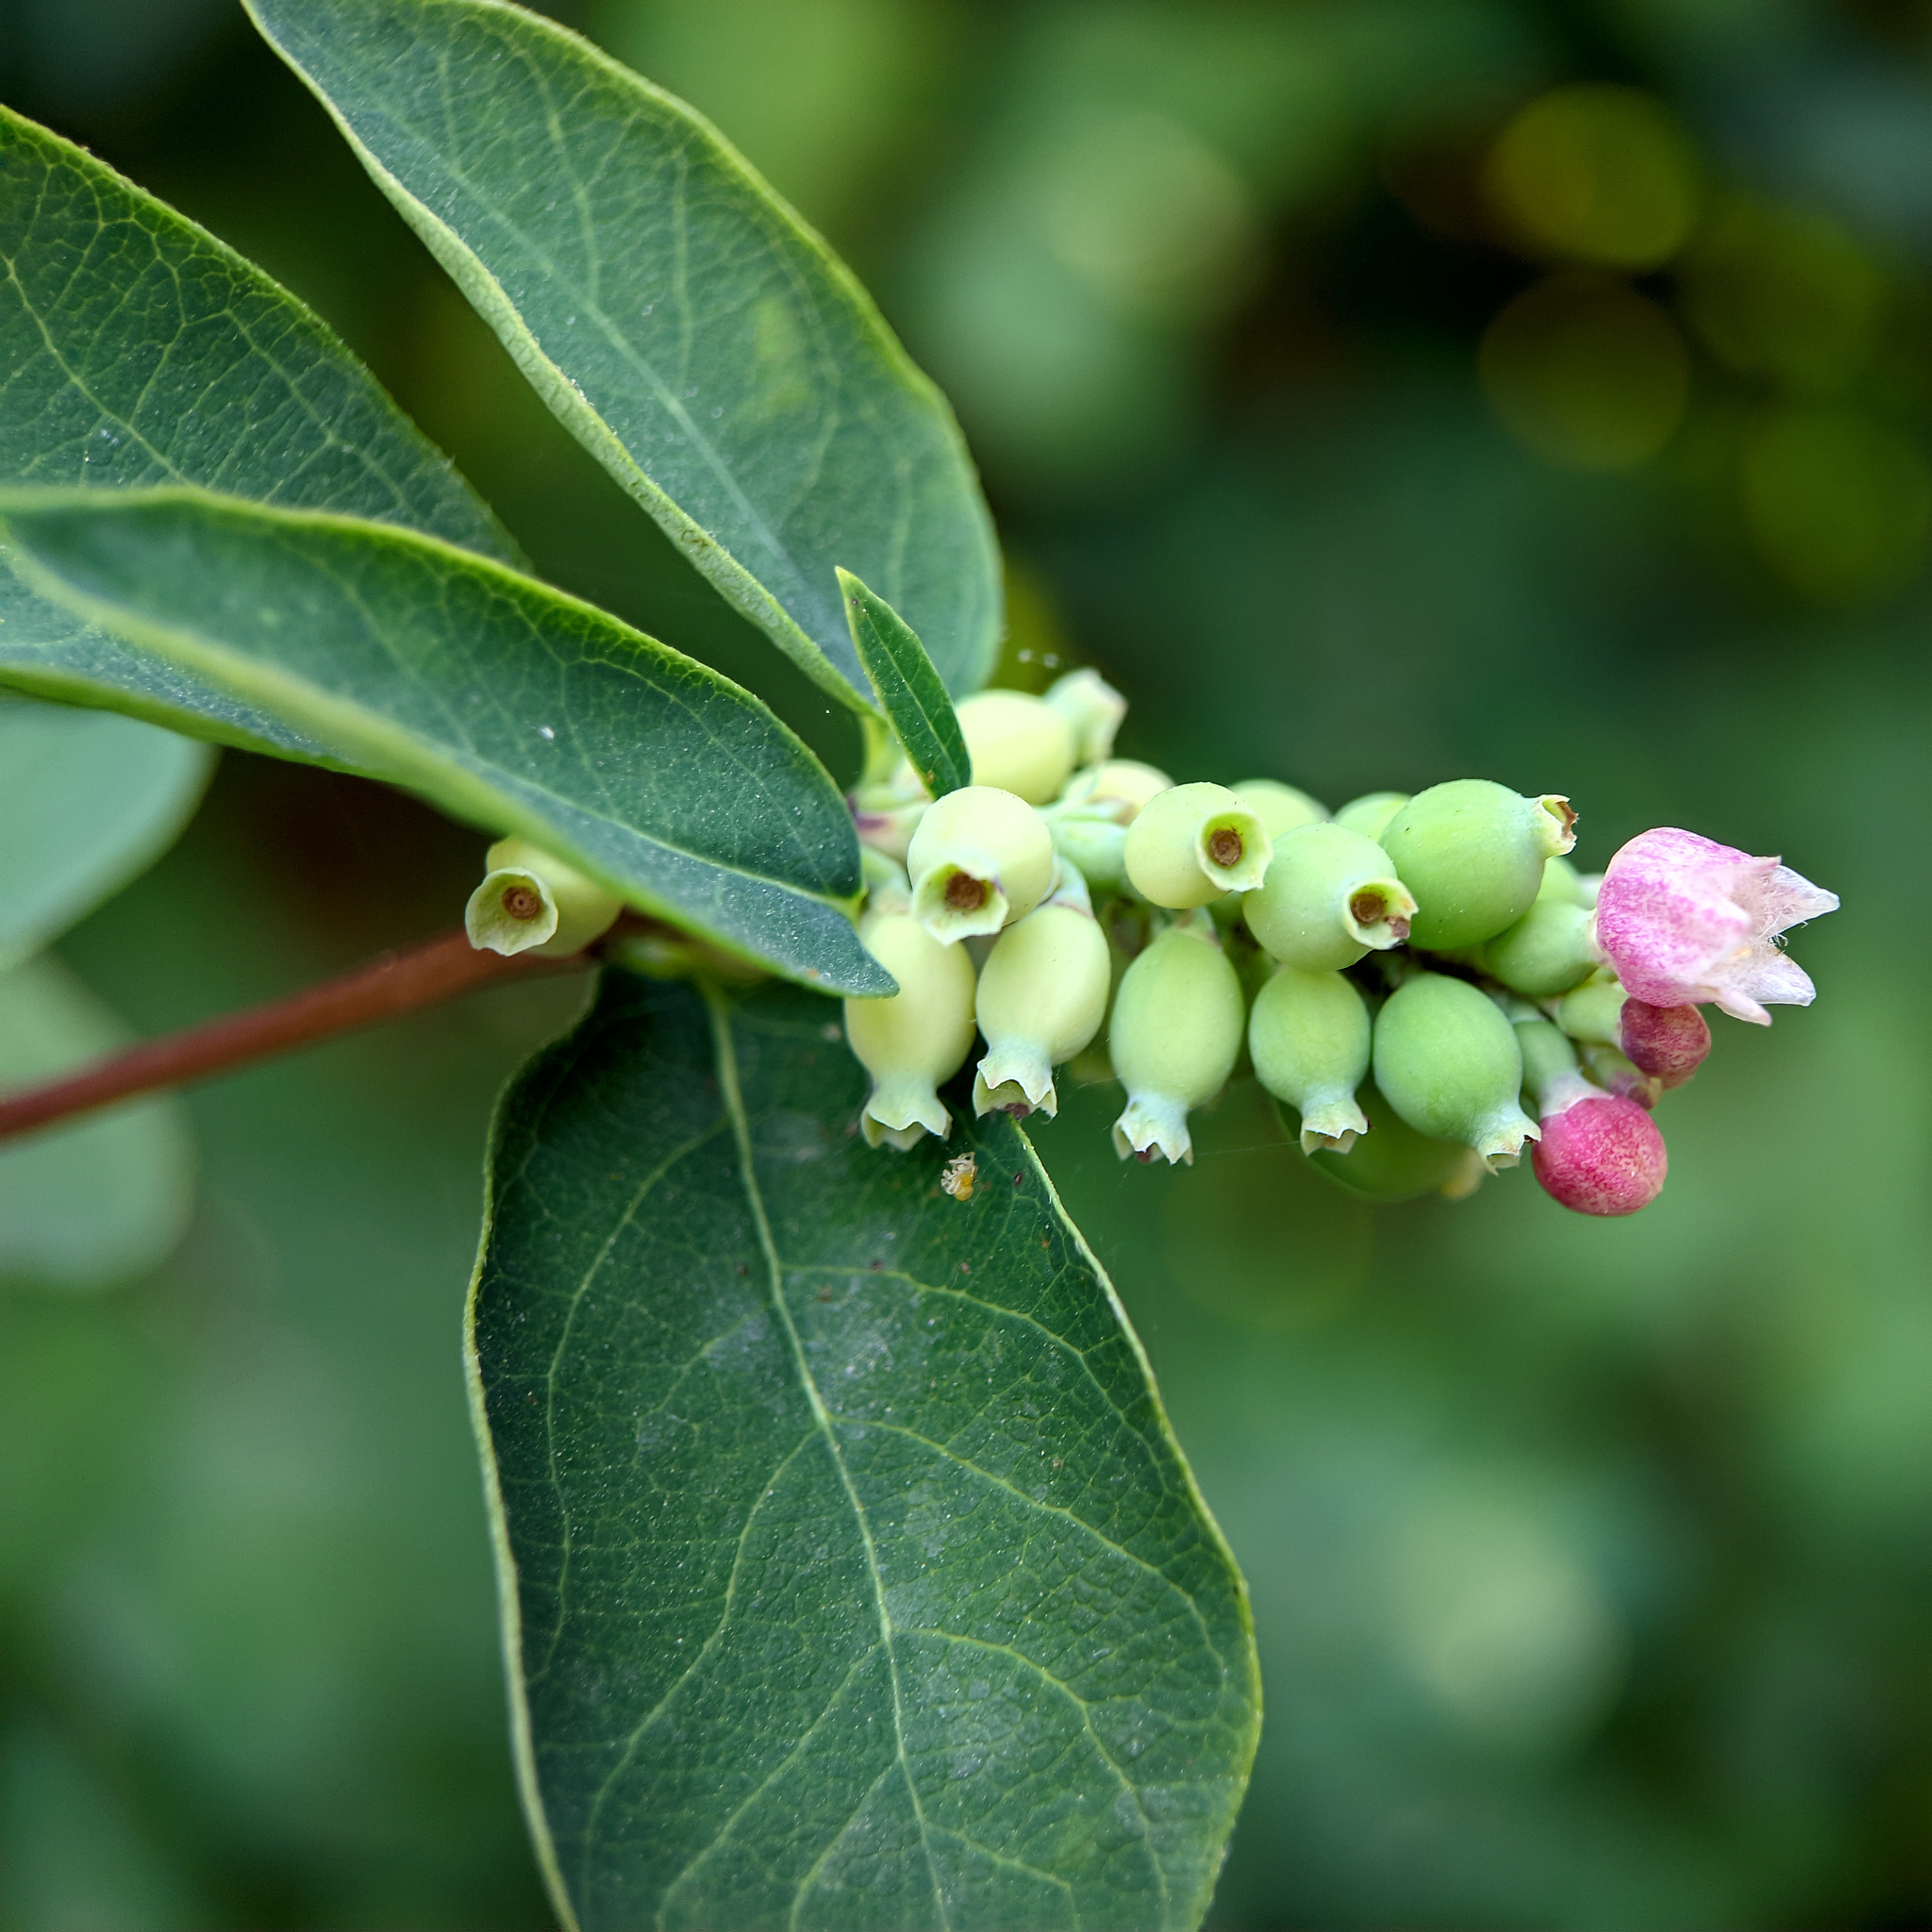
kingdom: Plantae
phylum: Tracheophyta
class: Magnoliopsida
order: Dipsacales
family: Caprifoliaceae
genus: Symphoricarpos
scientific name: Symphoricarpos albus
